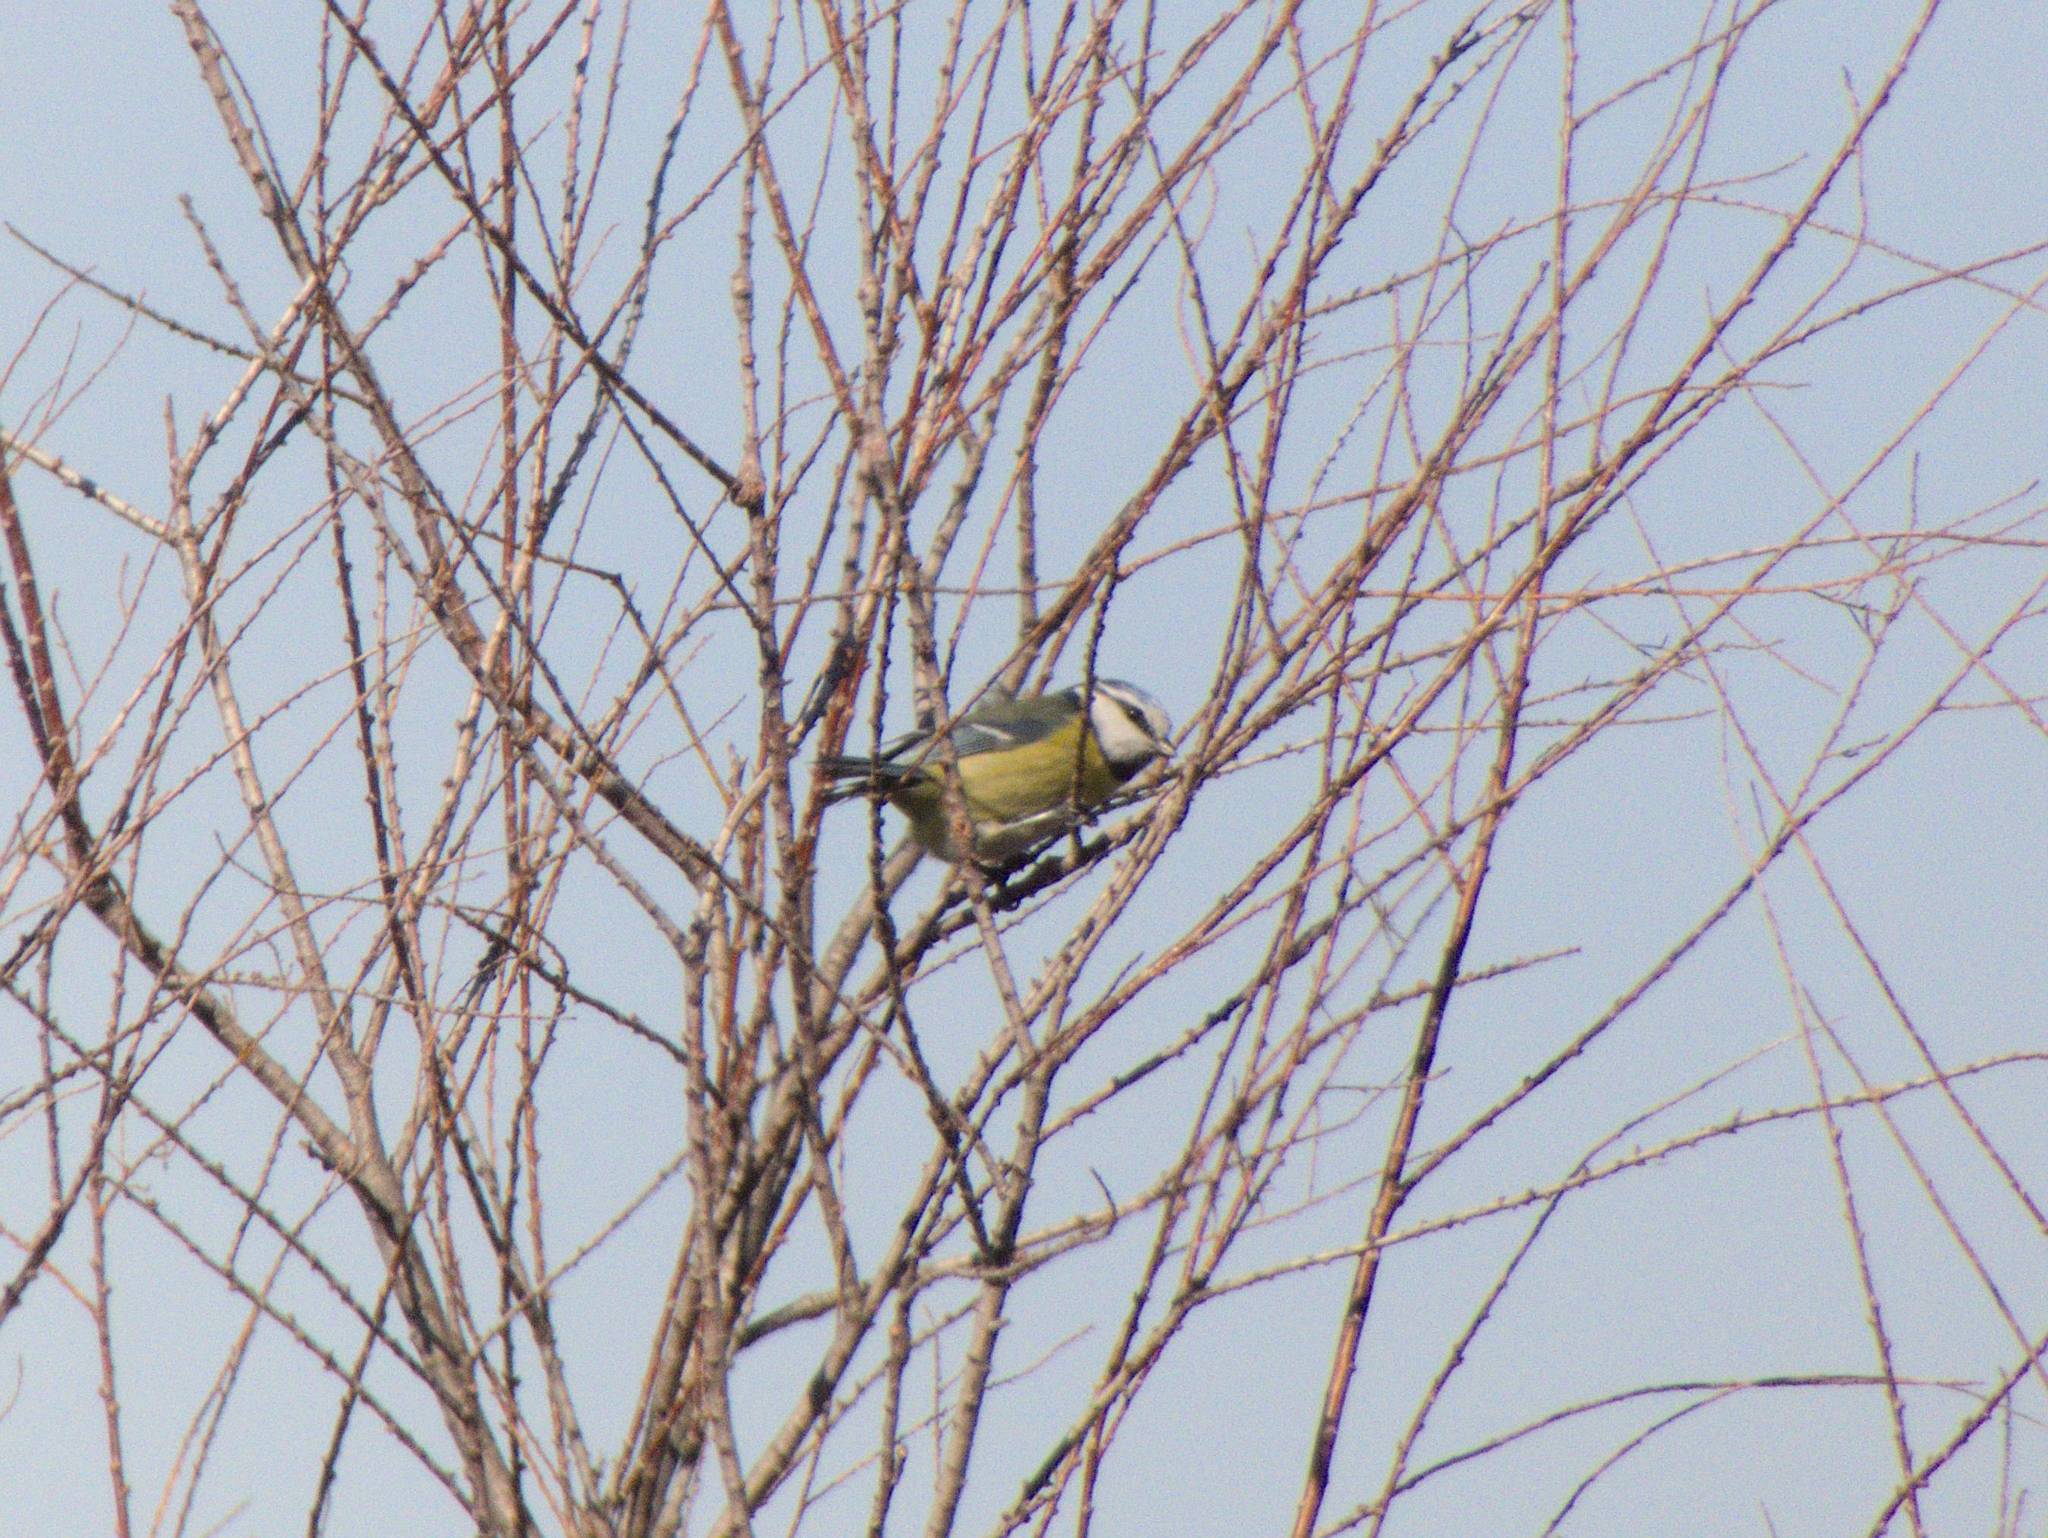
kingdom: Animalia
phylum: Chordata
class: Aves
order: Passeriformes
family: Paridae
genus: Cyanistes
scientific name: Cyanistes caeruleus
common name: Eurasian blue tit
